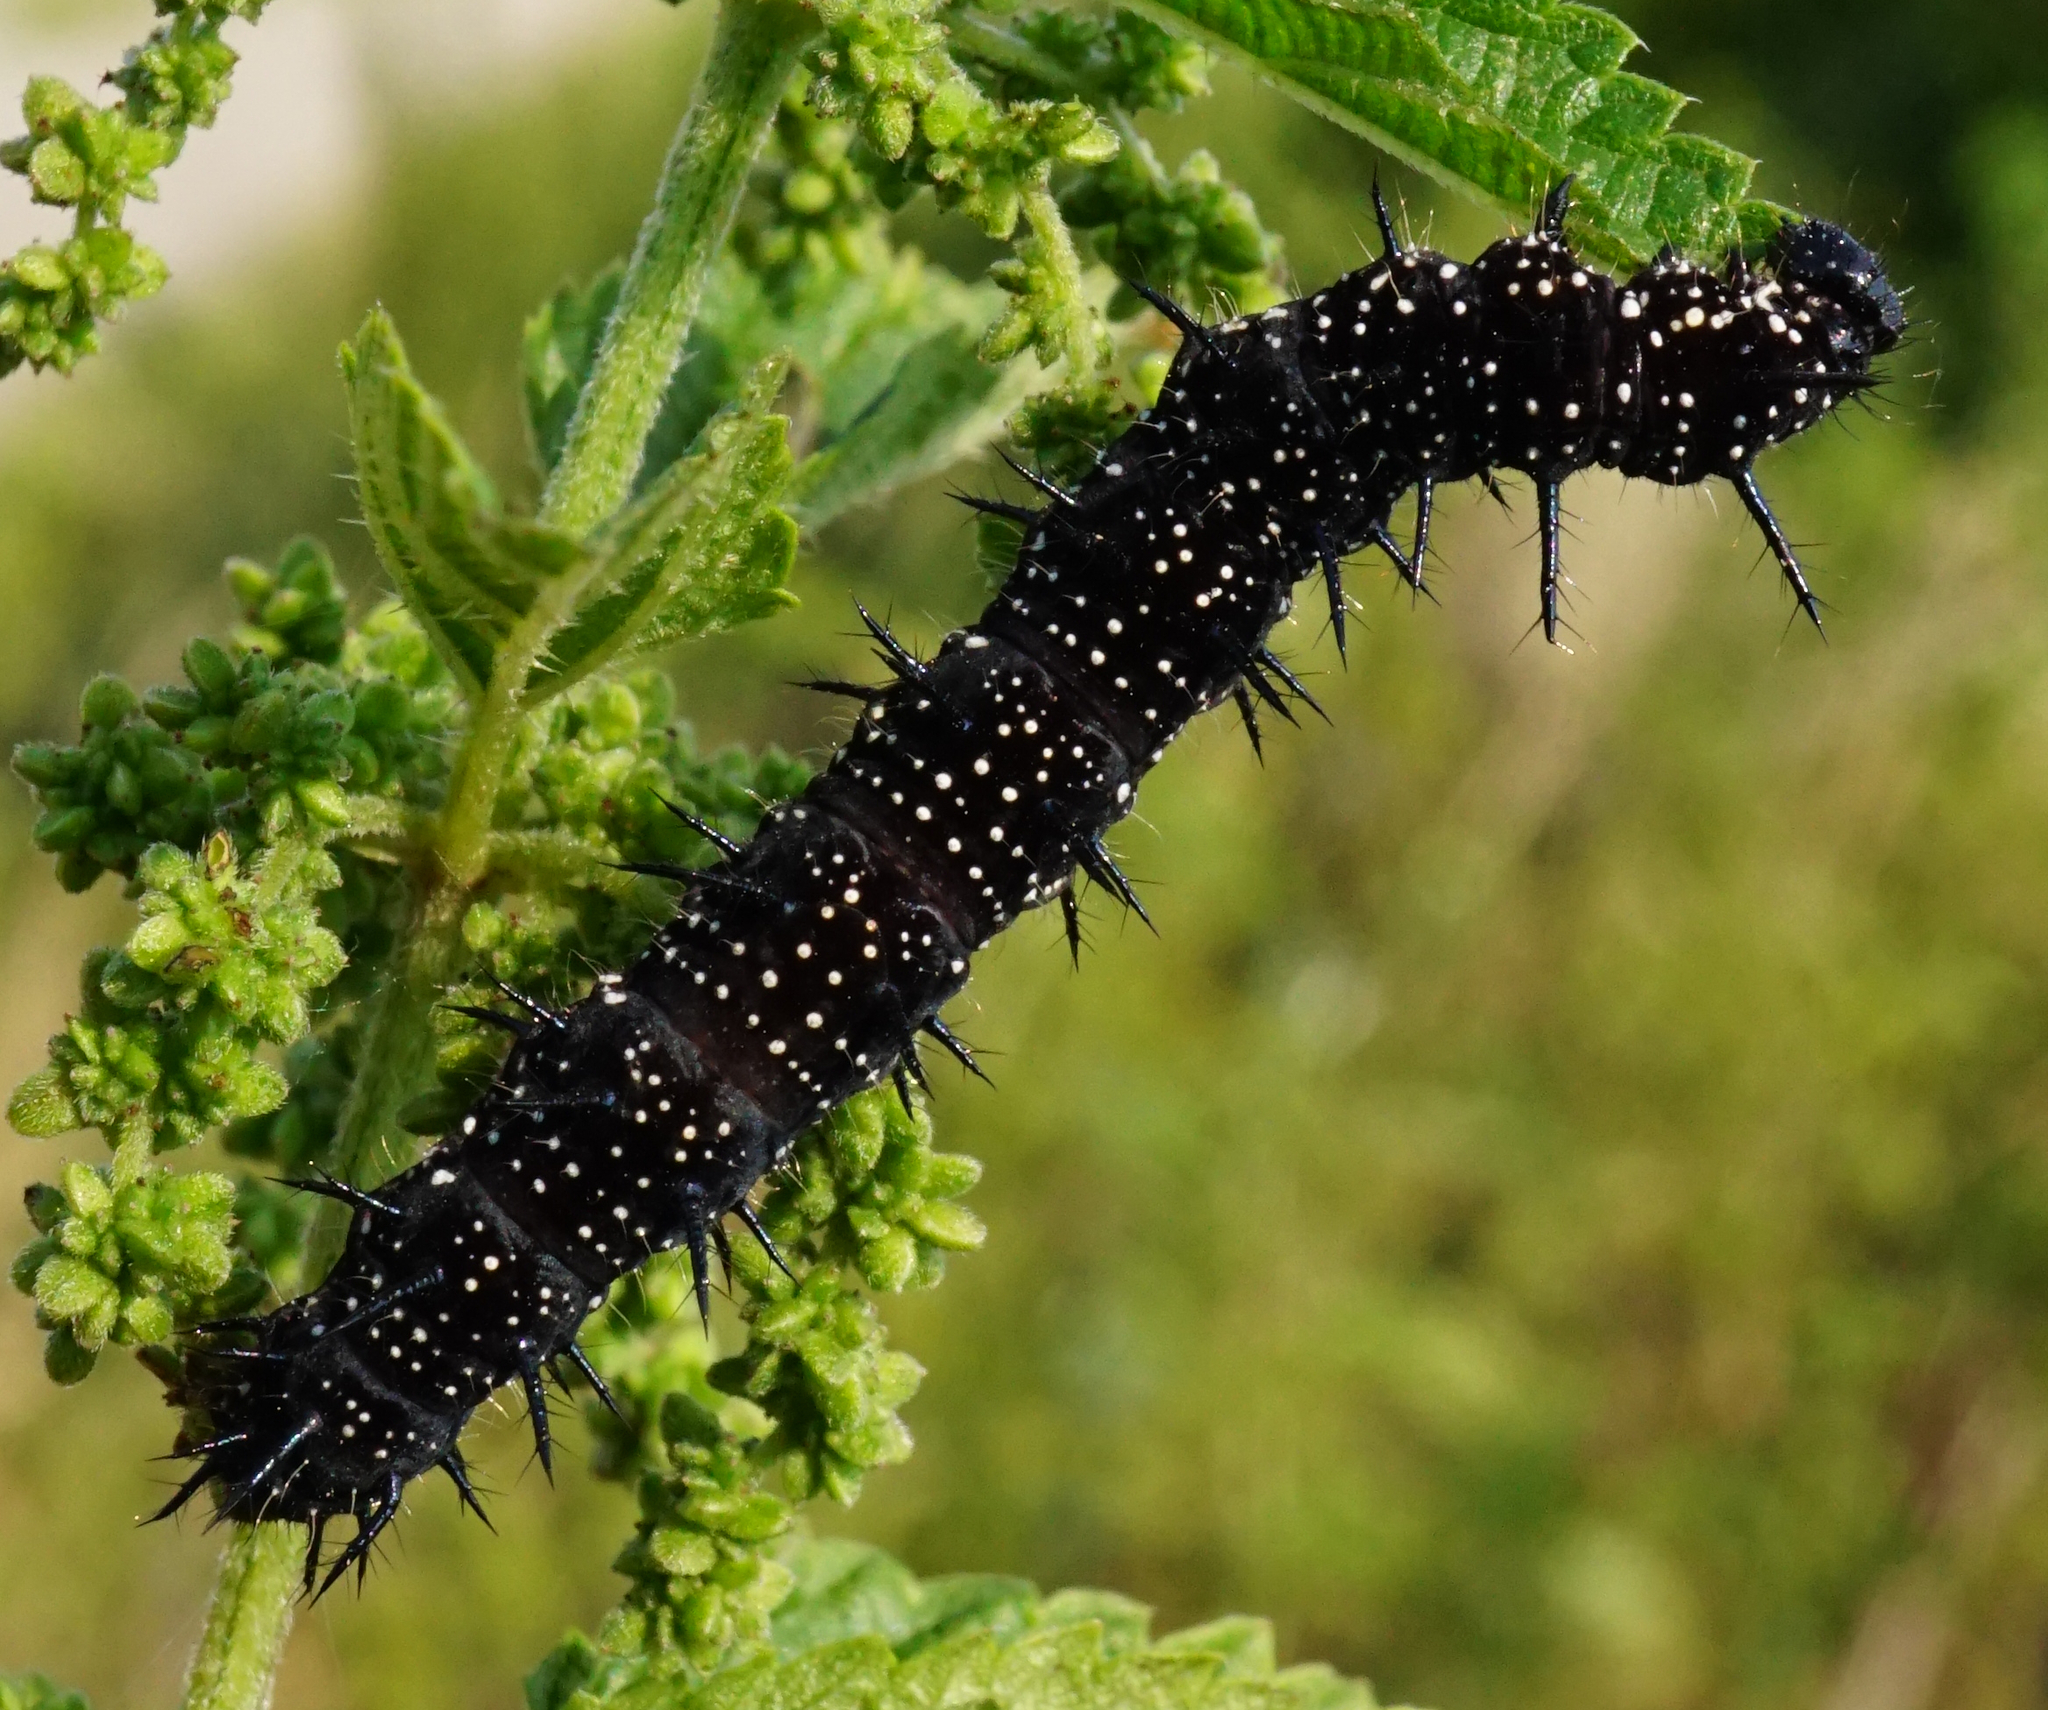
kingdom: Animalia
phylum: Arthropoda
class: Insecta
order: Lepidoptera
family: Nymphalidae
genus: Aglais
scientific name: Aglais io
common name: Peacock
